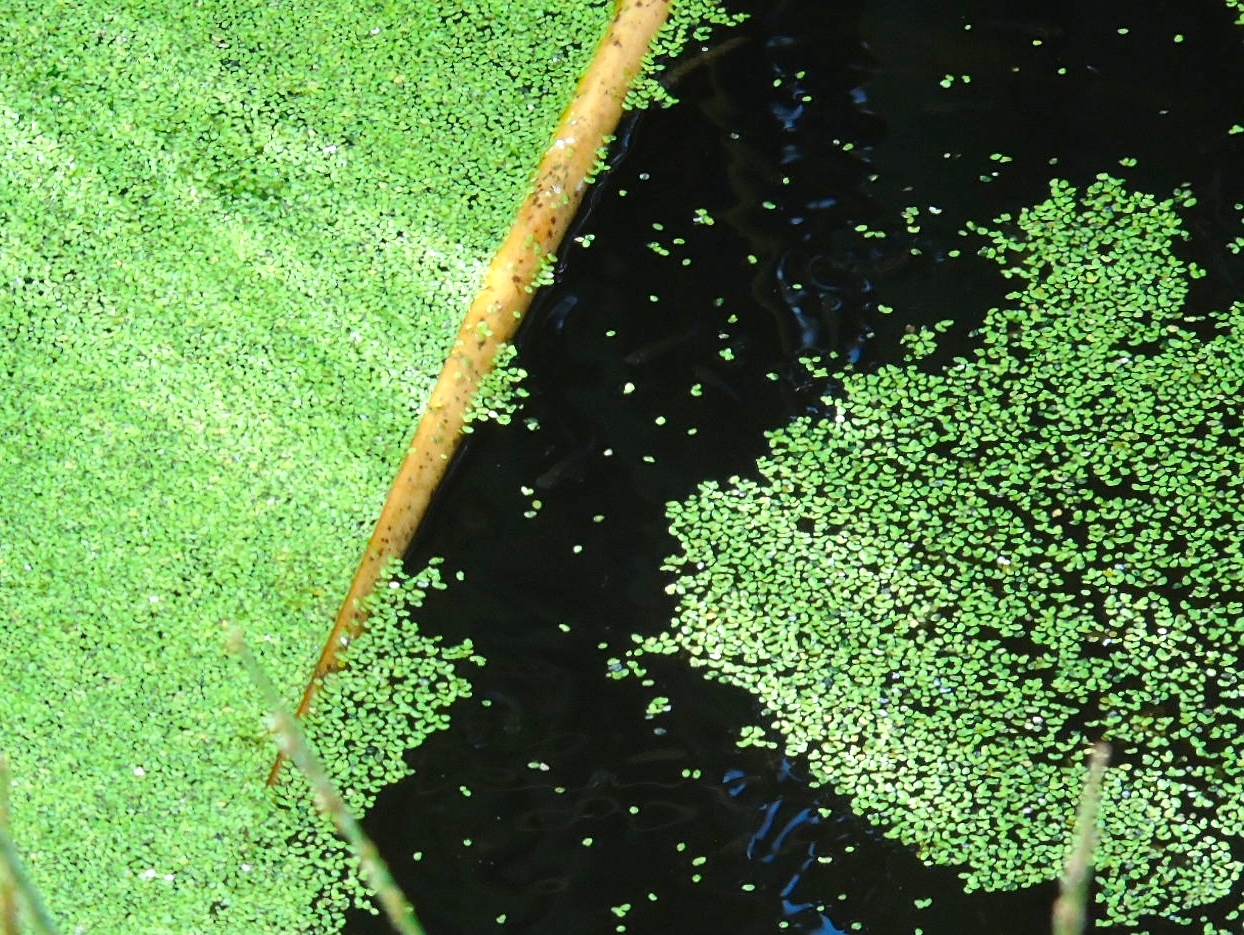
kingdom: Plantae
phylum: Tracheophyta
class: Liliopsida
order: Alismatales
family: Araceae
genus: Lemna
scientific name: Lemna
